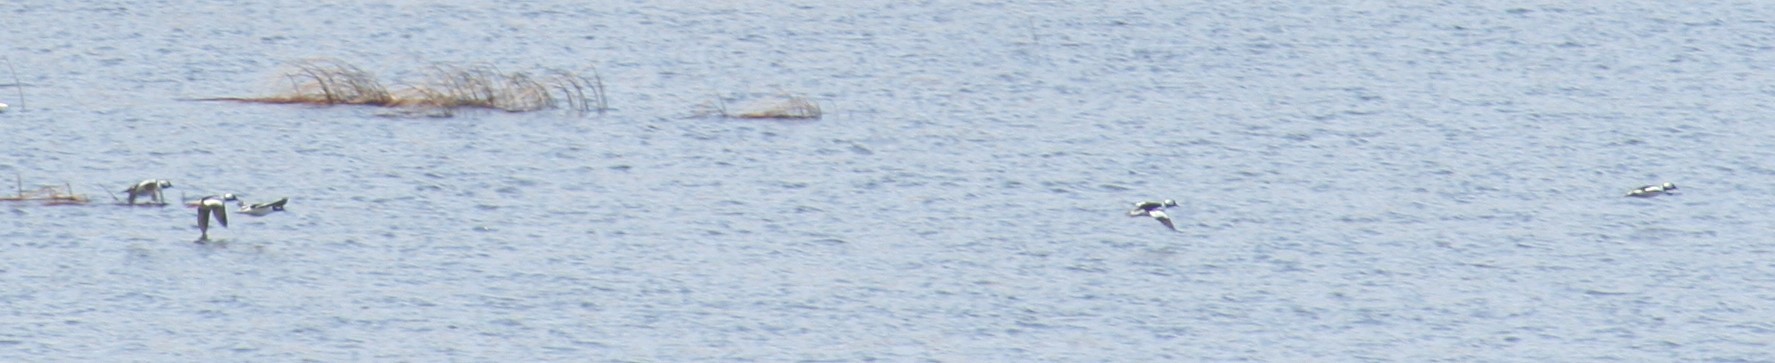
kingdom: Animalia
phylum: Chordata
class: Aves
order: Anseriformes
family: Anatidae
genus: Bucephala
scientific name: Bucephala albeola
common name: Bufflehead
